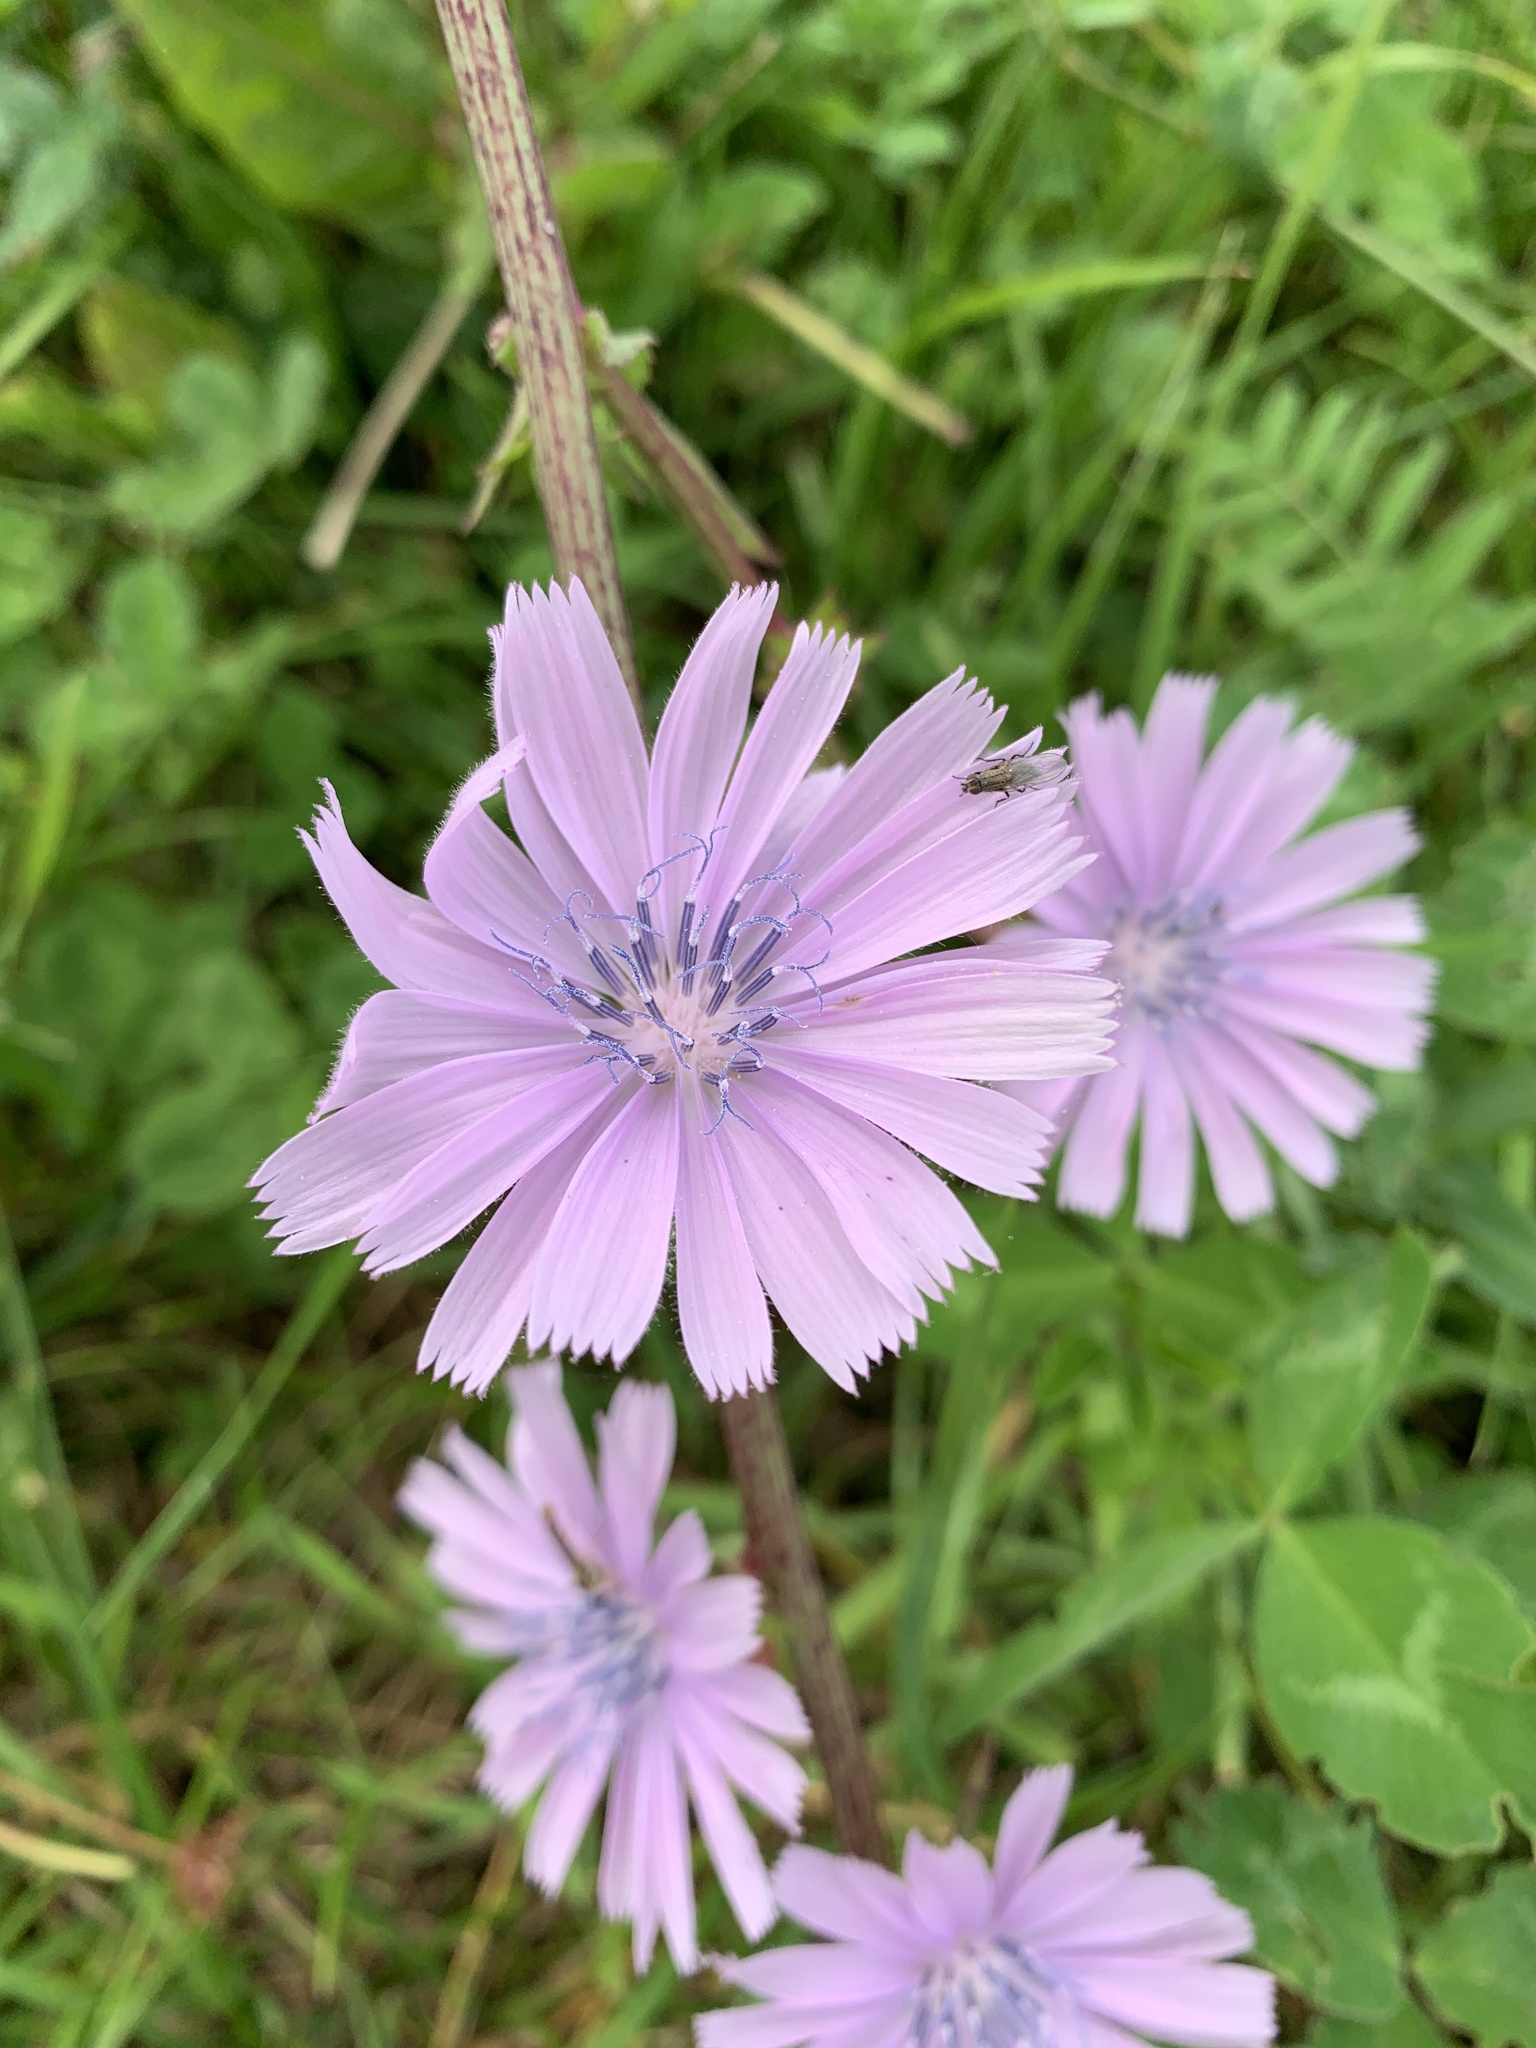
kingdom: Plantae
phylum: Tracheophyta
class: Magnoliopsida
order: Asterales
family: Asteraceae
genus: Cichorium
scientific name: Cichorium intybus
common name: Chicory
